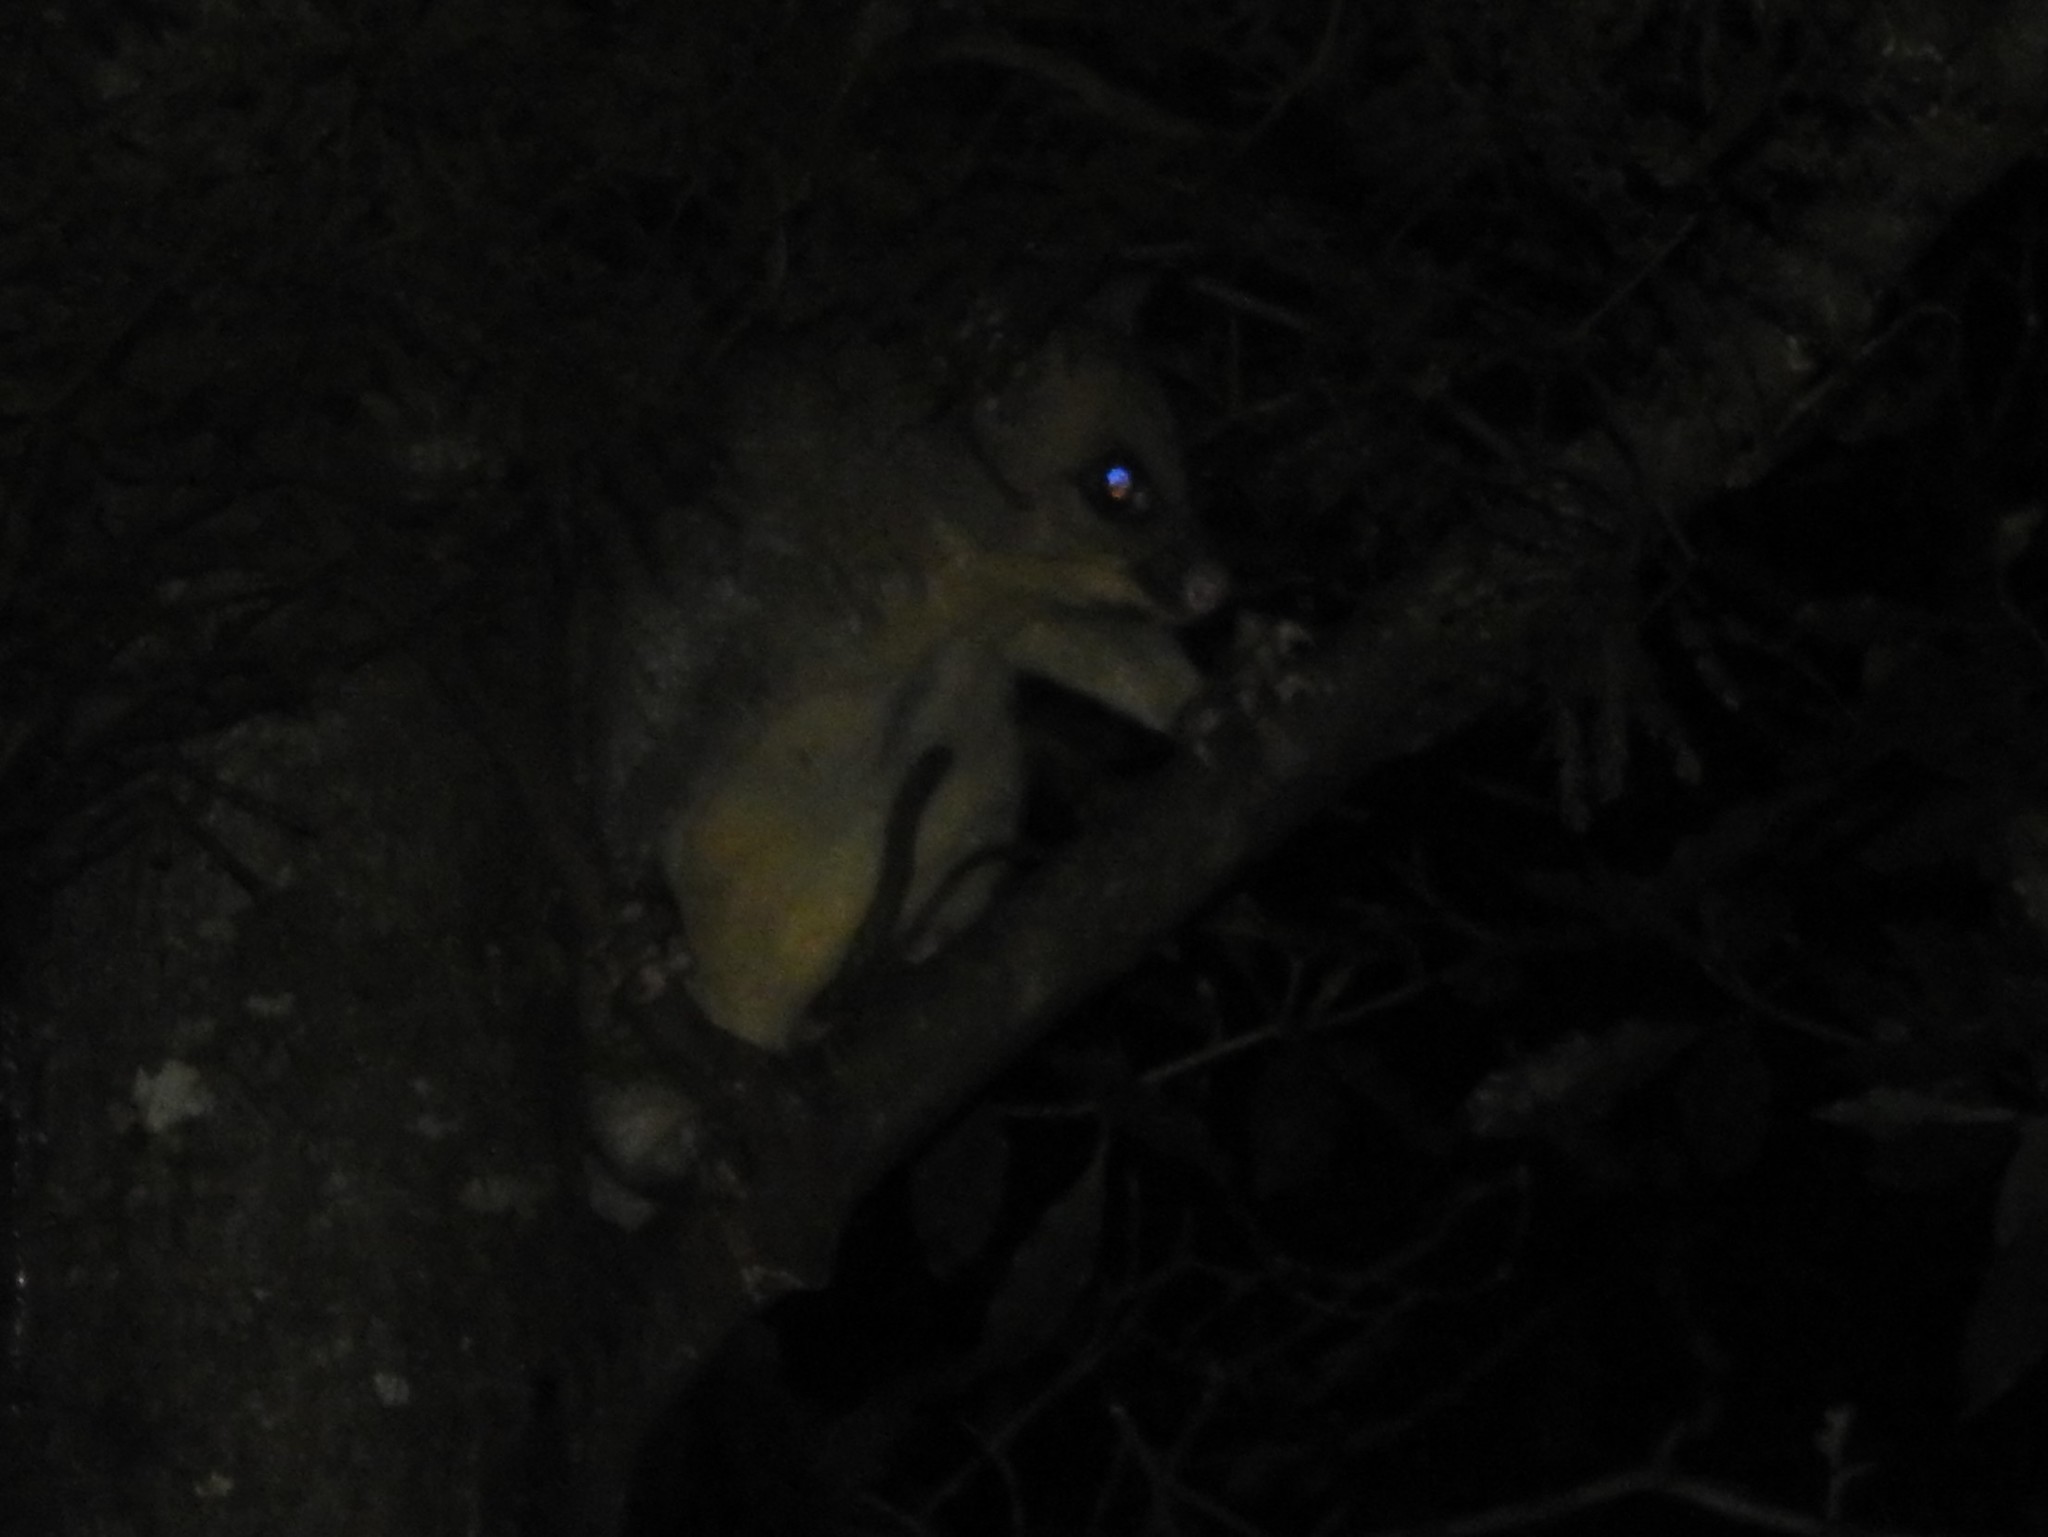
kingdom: Animalia
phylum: Chordata
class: Mammalia
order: Diprotodontia
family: Phalangeridae
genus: Trichosurus
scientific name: Trichosurus vulpecula
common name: Common brushtail
